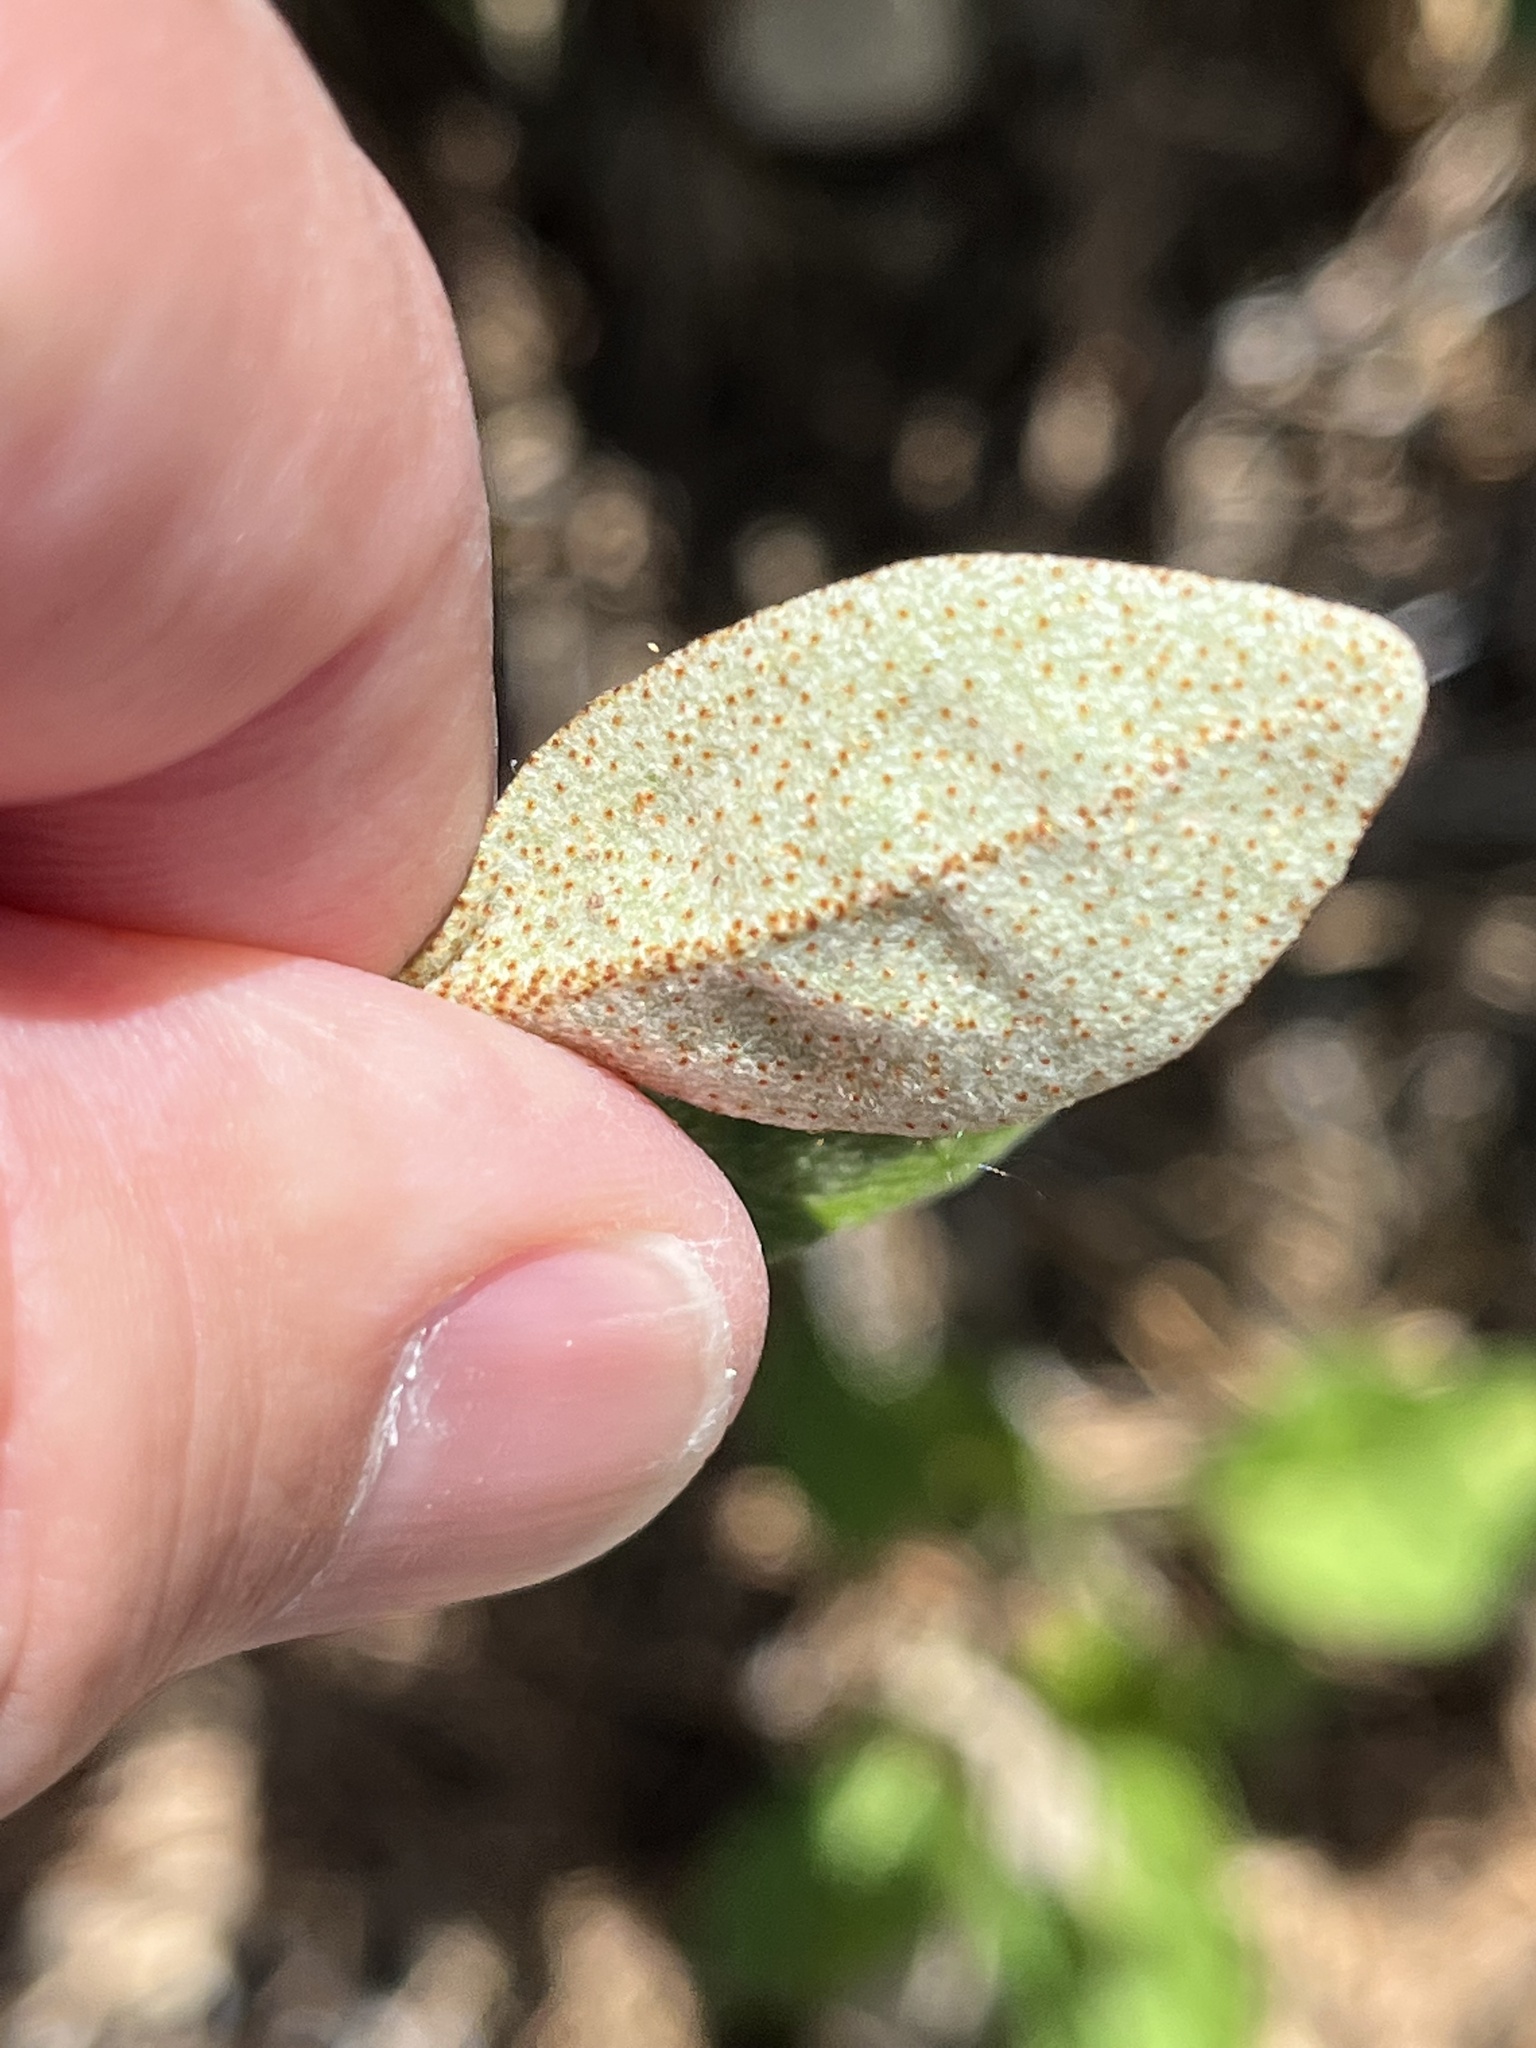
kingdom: Plantae
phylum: Tracheophyta
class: Magnoliopsida
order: Rosales
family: Elaeagnaceae
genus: Shepherdia
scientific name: Shepherdia canadensis
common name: Soapberry
